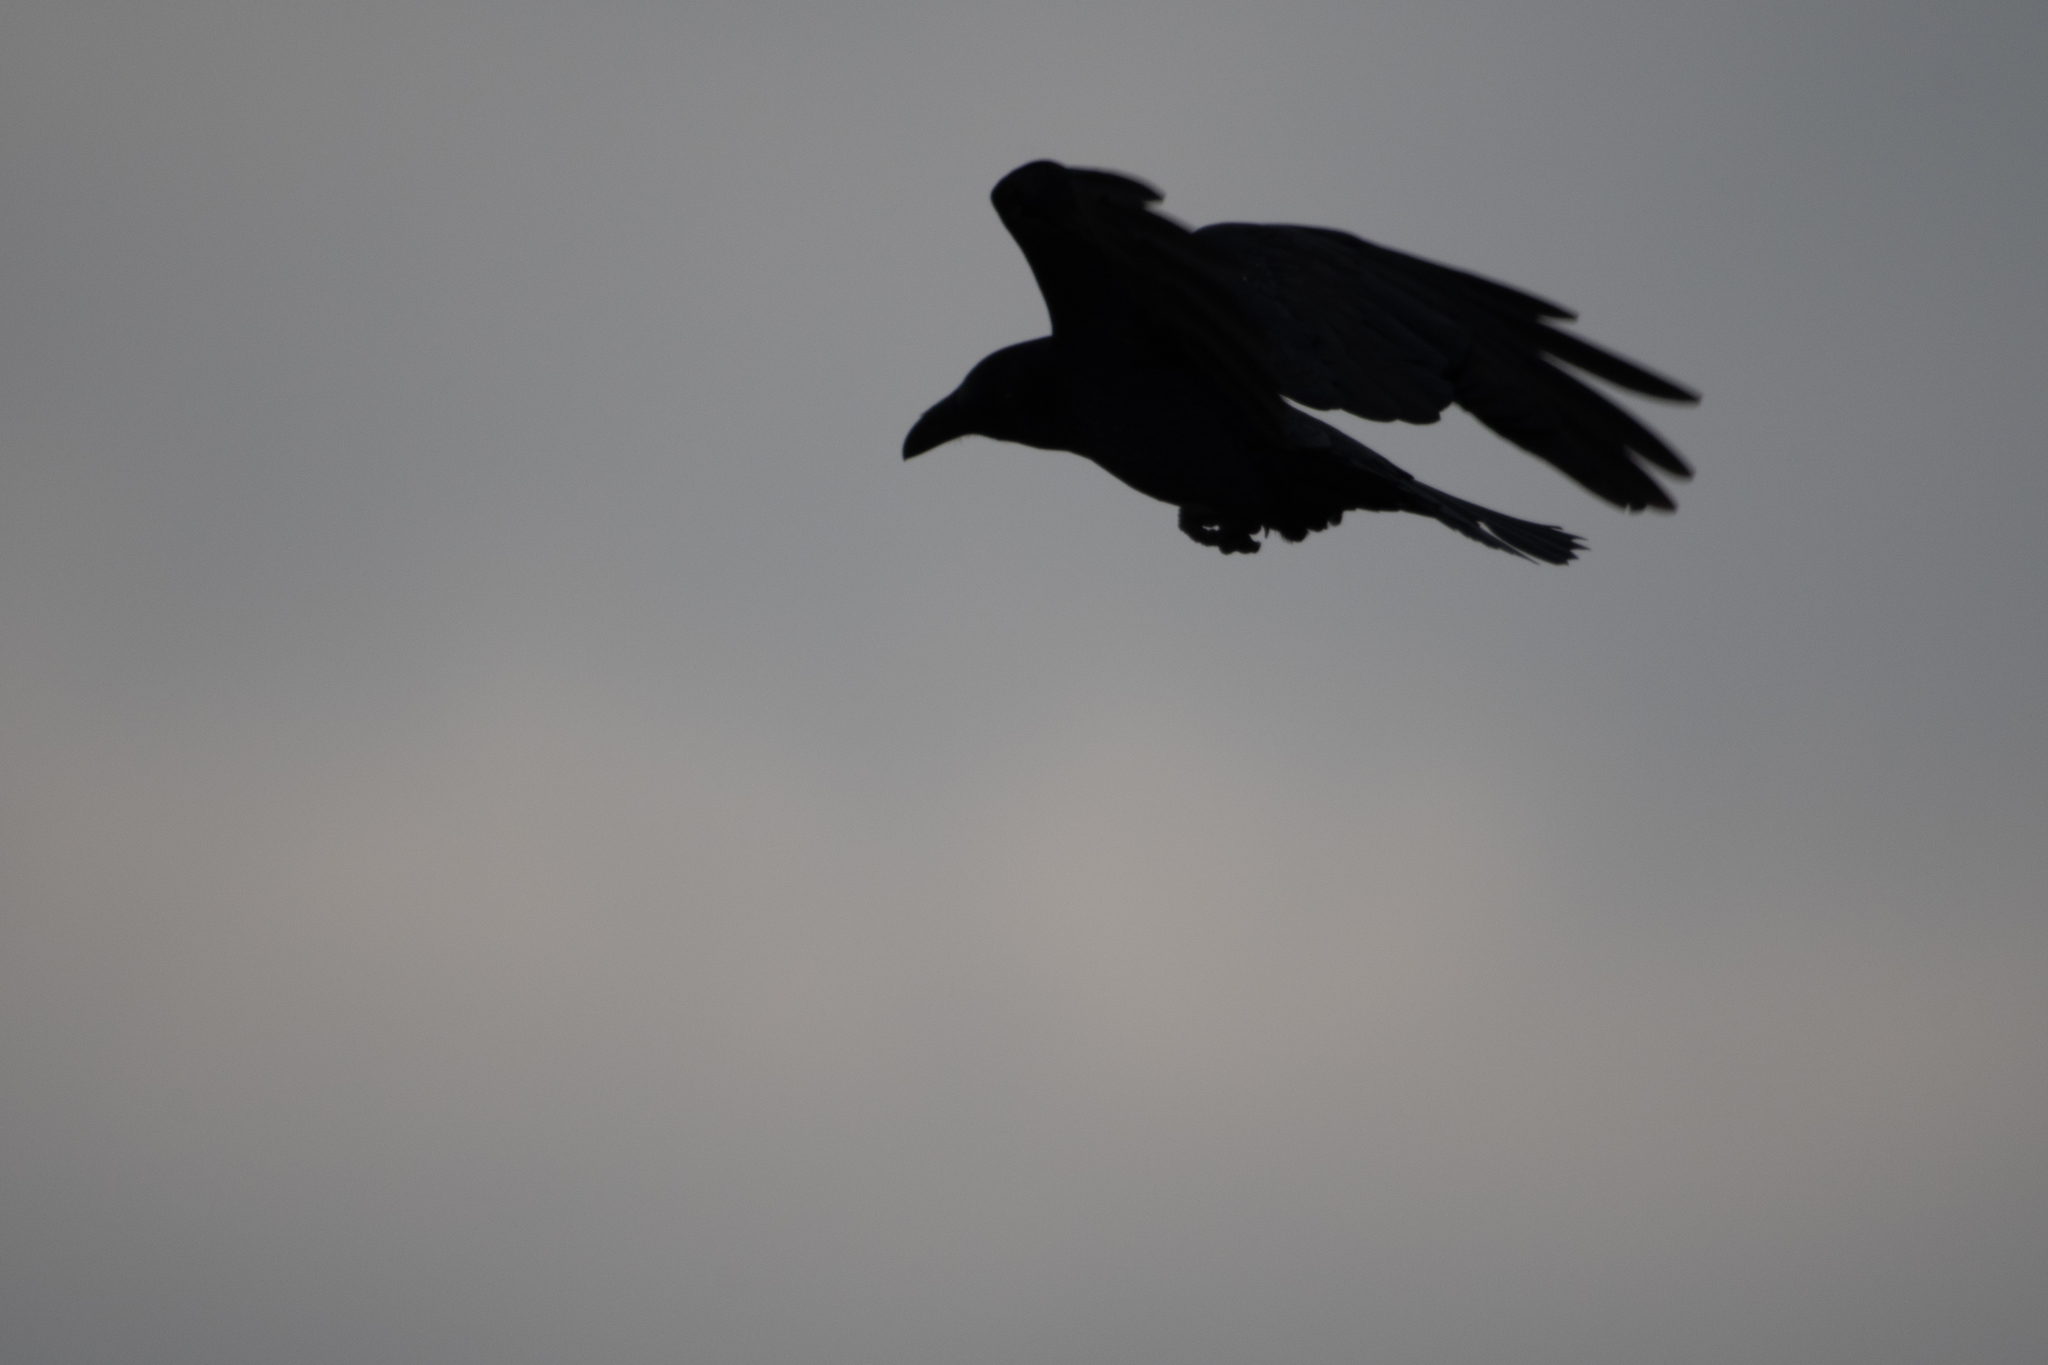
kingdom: Animalia
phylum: Chordata
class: Aves
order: Passeriformes
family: Corvidae
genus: Corvus
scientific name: Corvus corax
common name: Common raven
